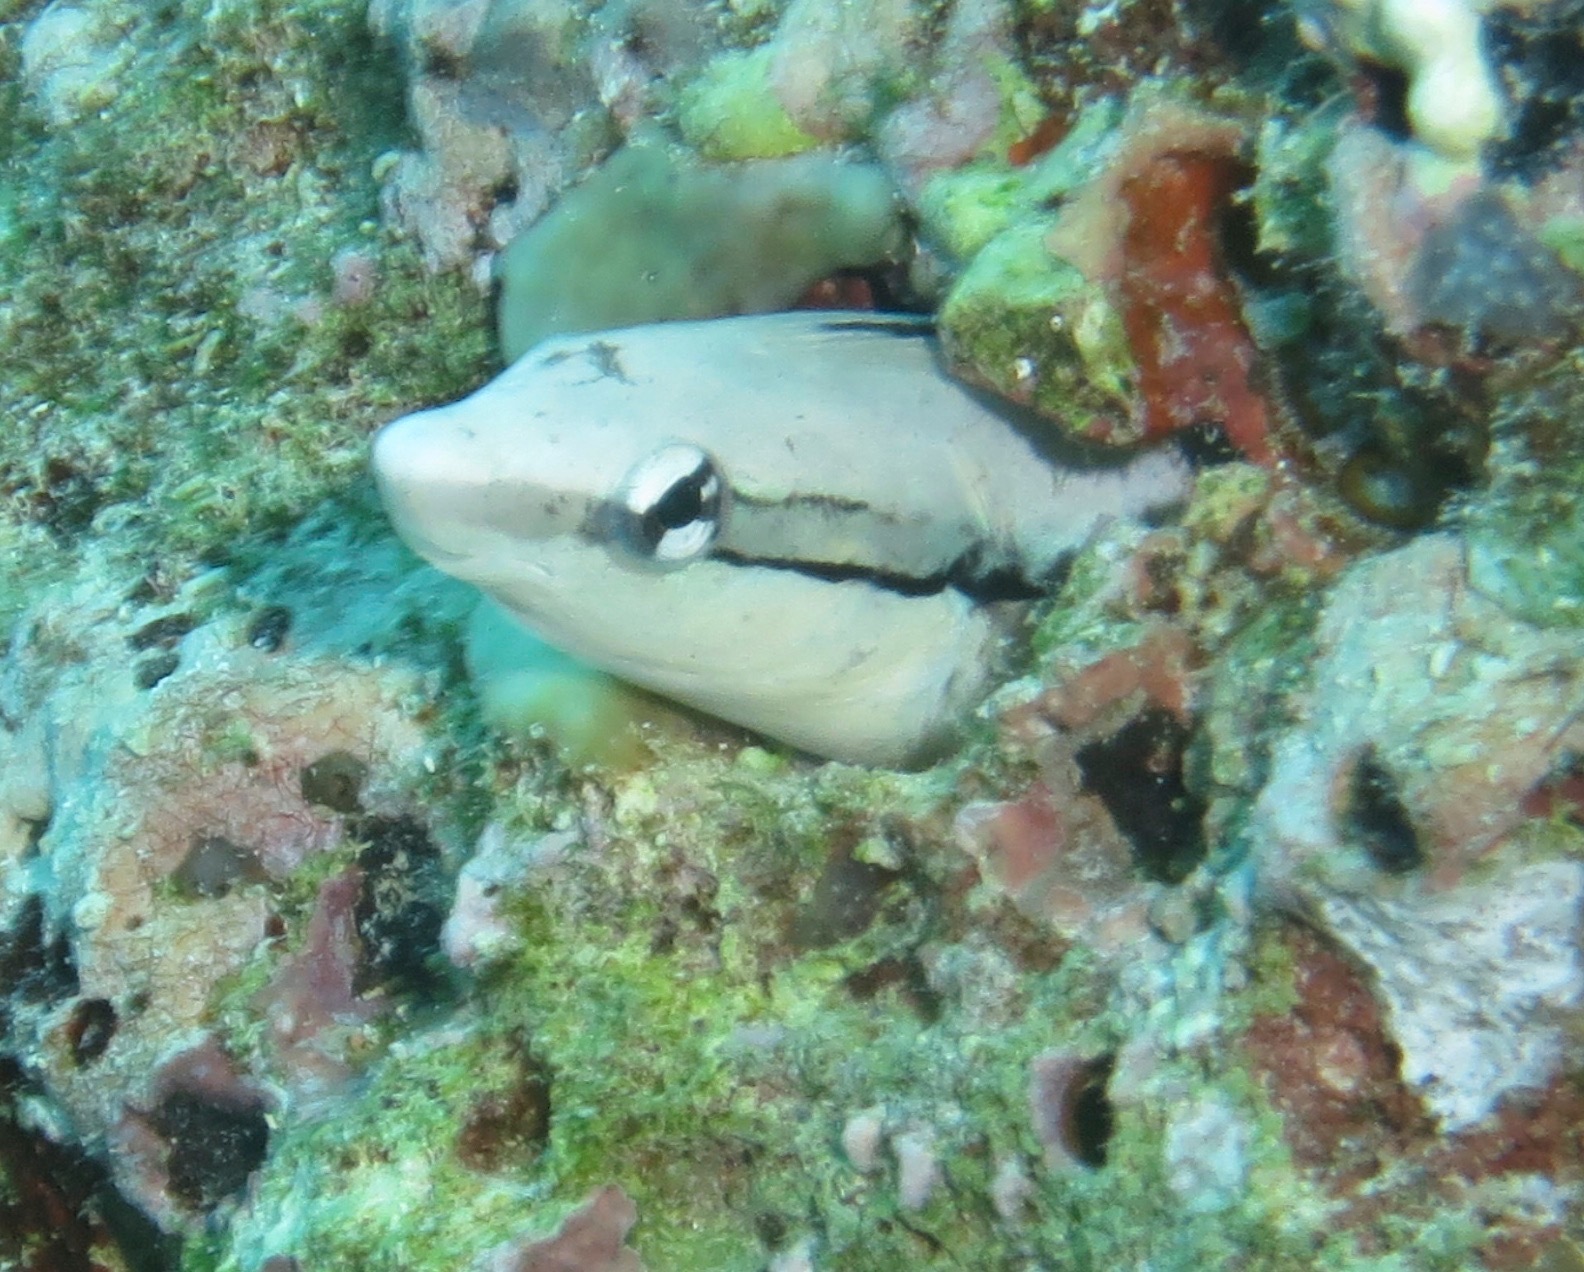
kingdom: Animalia
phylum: Chordata
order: Perciformes
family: Blenniidae
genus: Aspidontus
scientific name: Aspidontus taeniatus
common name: False cleanerfish
